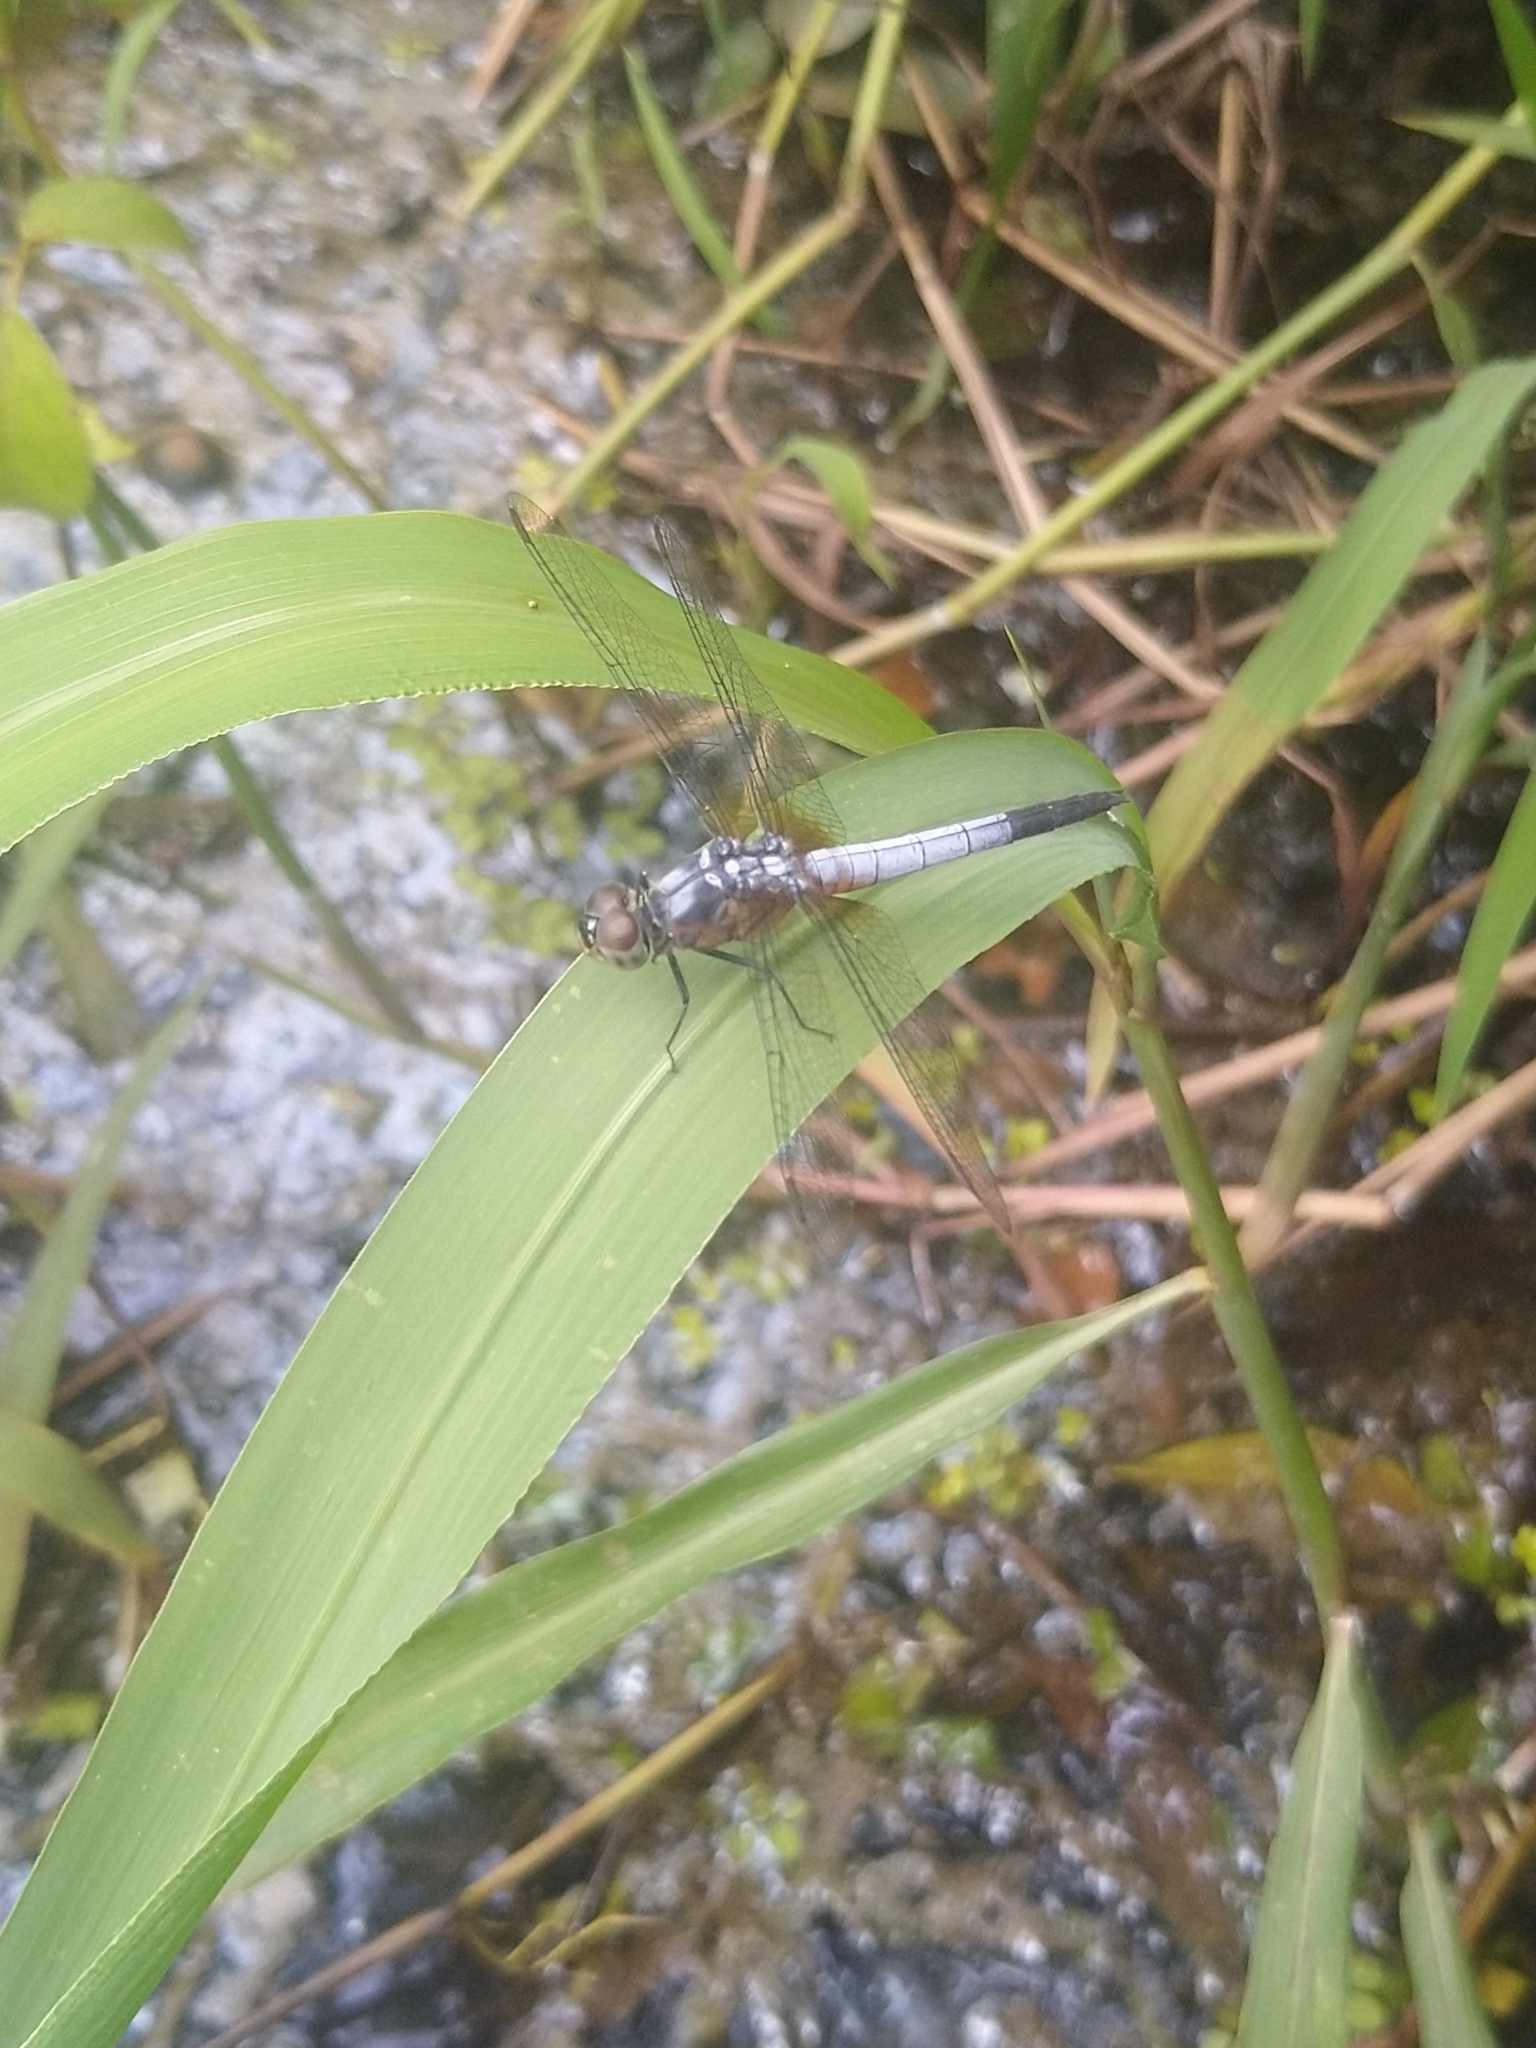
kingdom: Animalia
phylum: Arthropoda
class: Insecta
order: Odonata
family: Libellulidae
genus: Brachydiplax
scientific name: Brachydiplax chalybea
